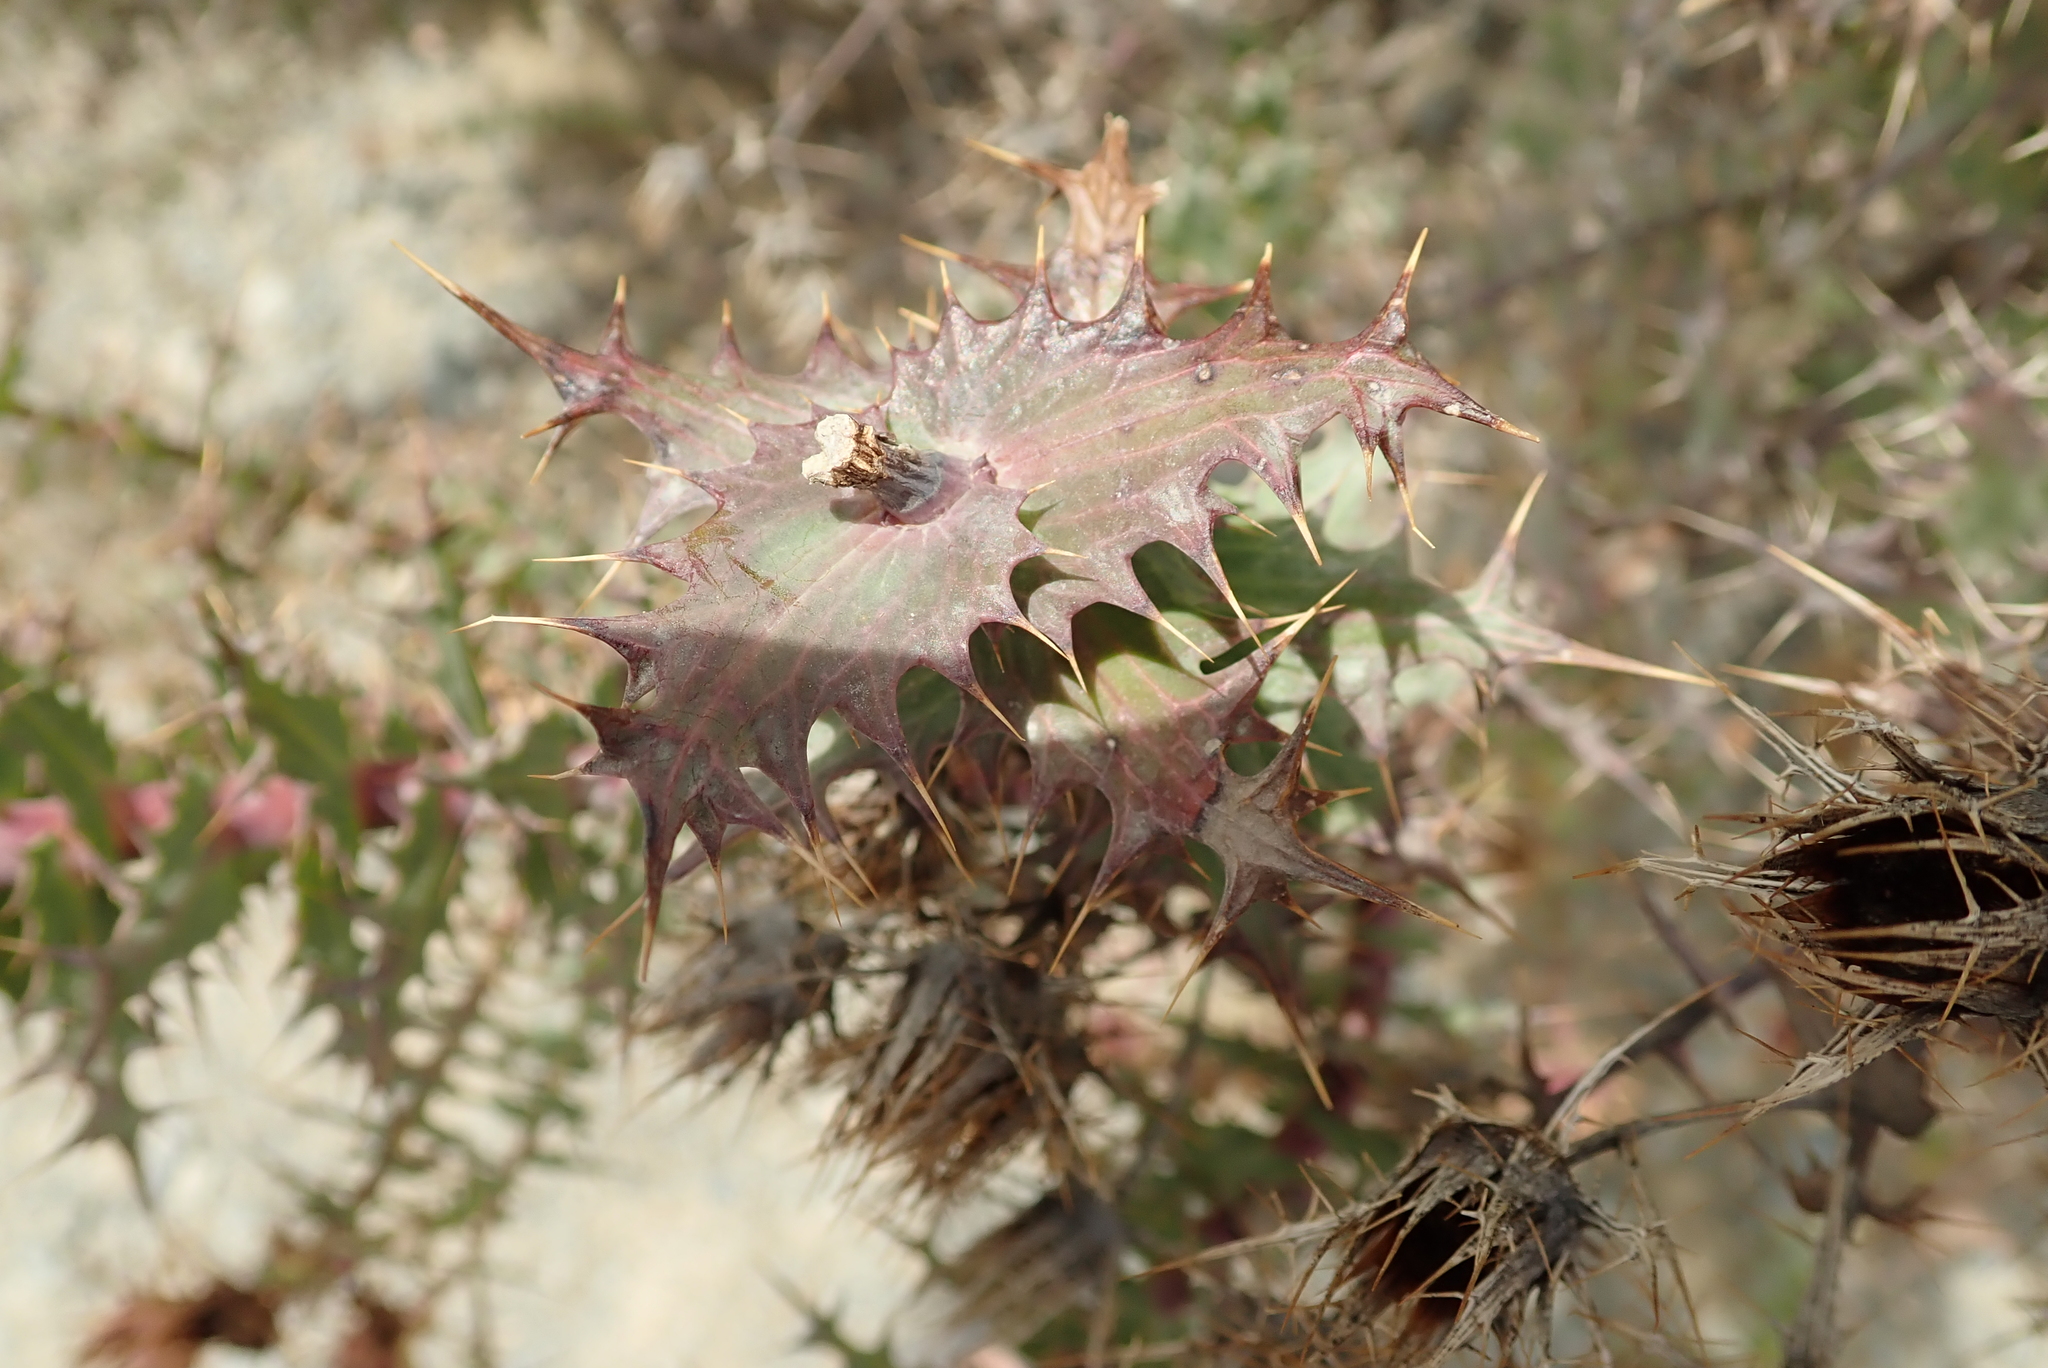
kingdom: Plantae
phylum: Tracheophyta
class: Magnoliopsida
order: Asterales
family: Asteraceae
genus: Berkheya
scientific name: Berkheya cruciata
